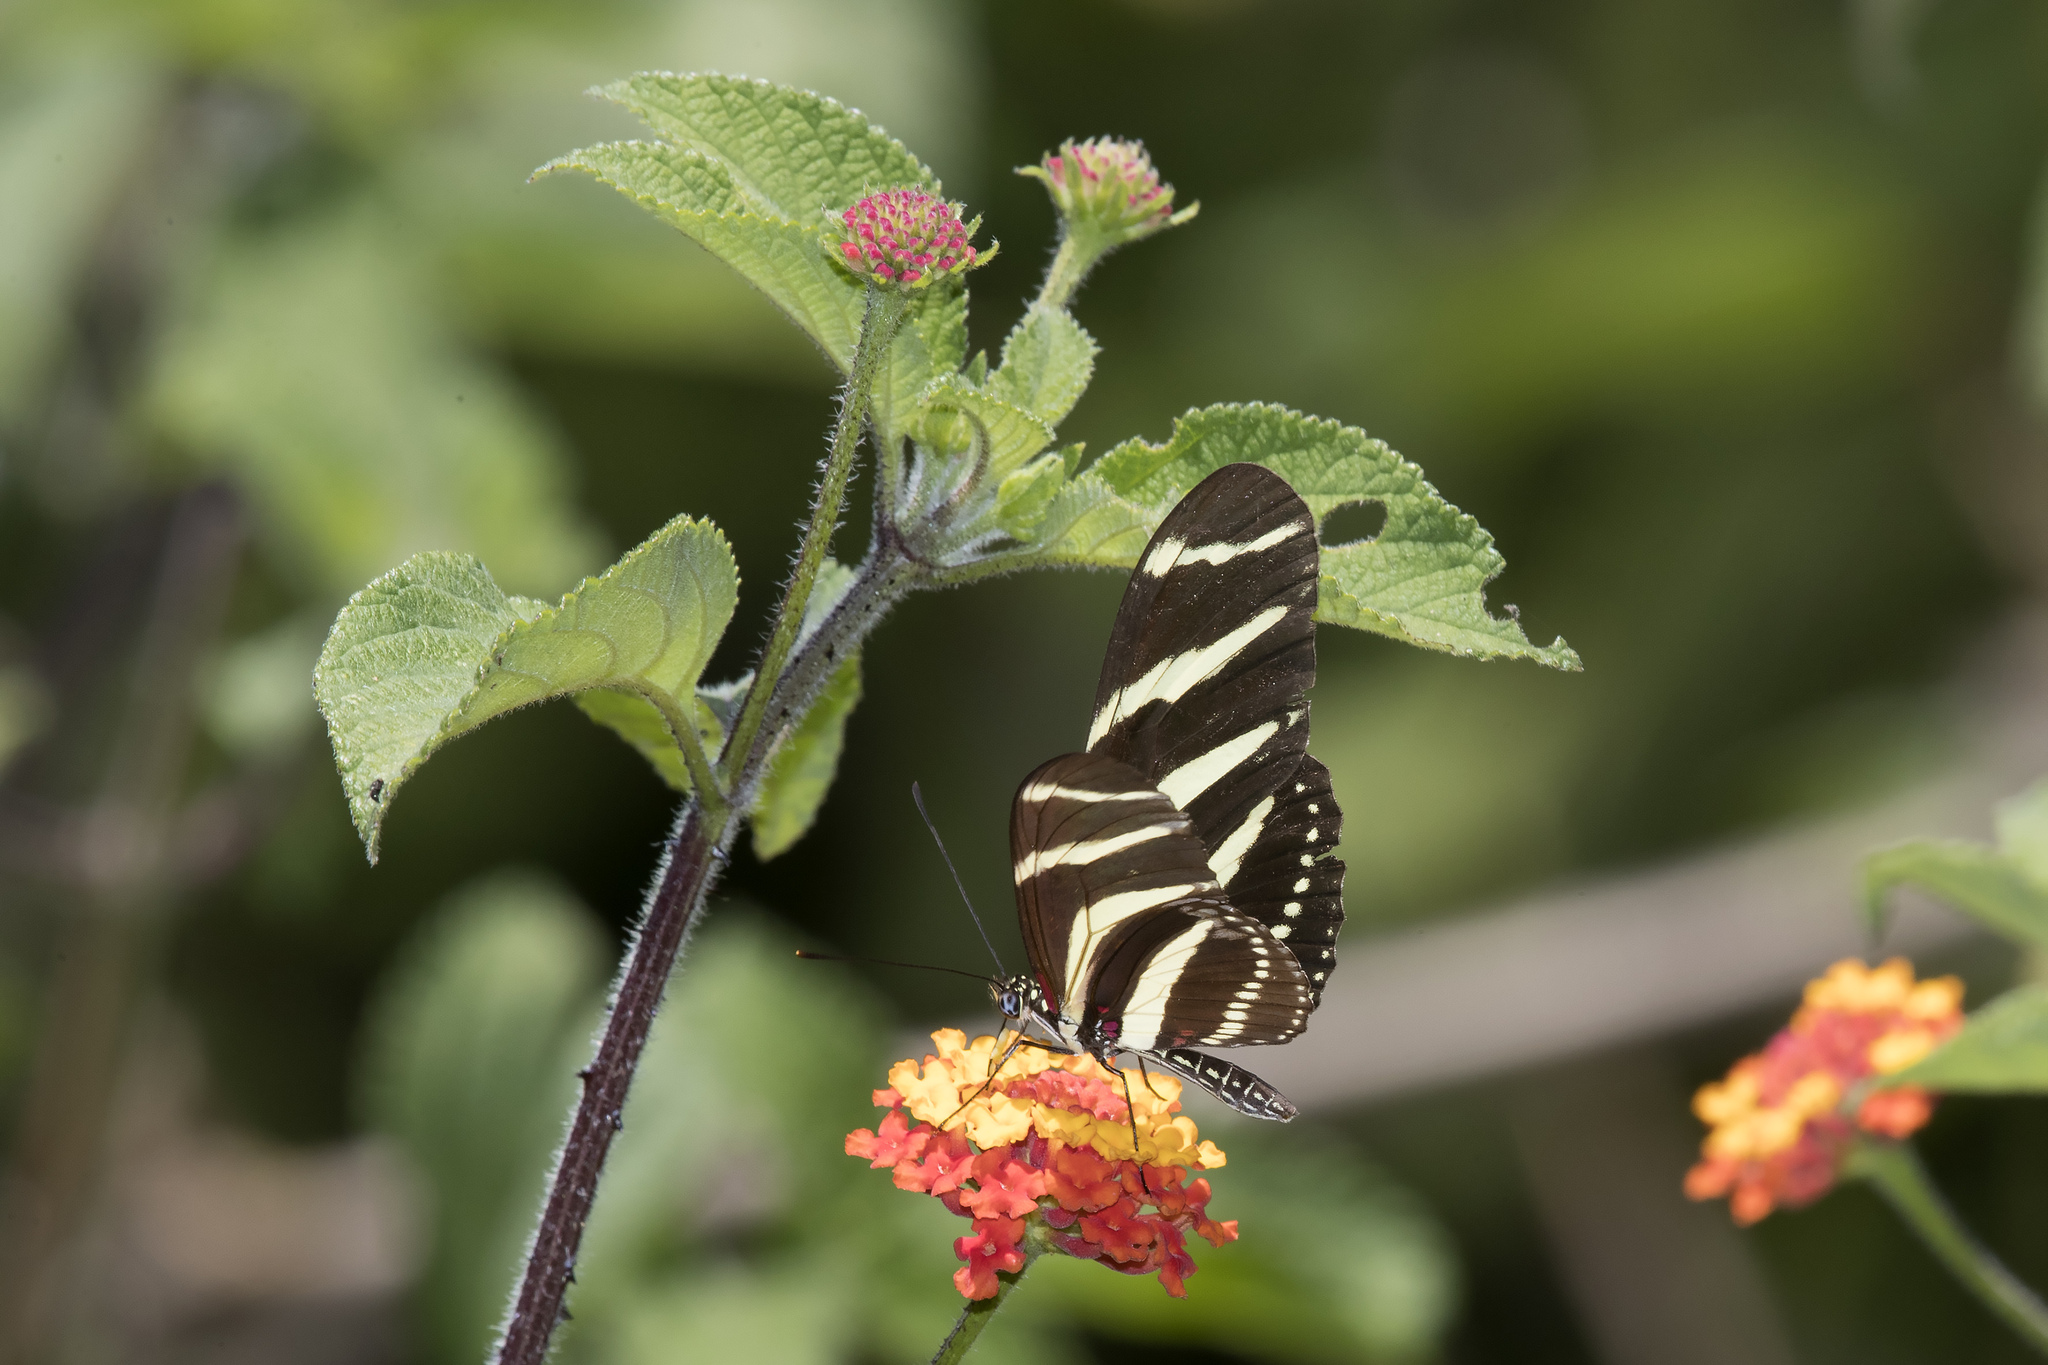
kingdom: Animalia
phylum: Arthropoda
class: Insecta
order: Lepidoptera
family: Nymphalidae
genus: Heliconius
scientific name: Heliconius charithonia
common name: Zebra long wing
